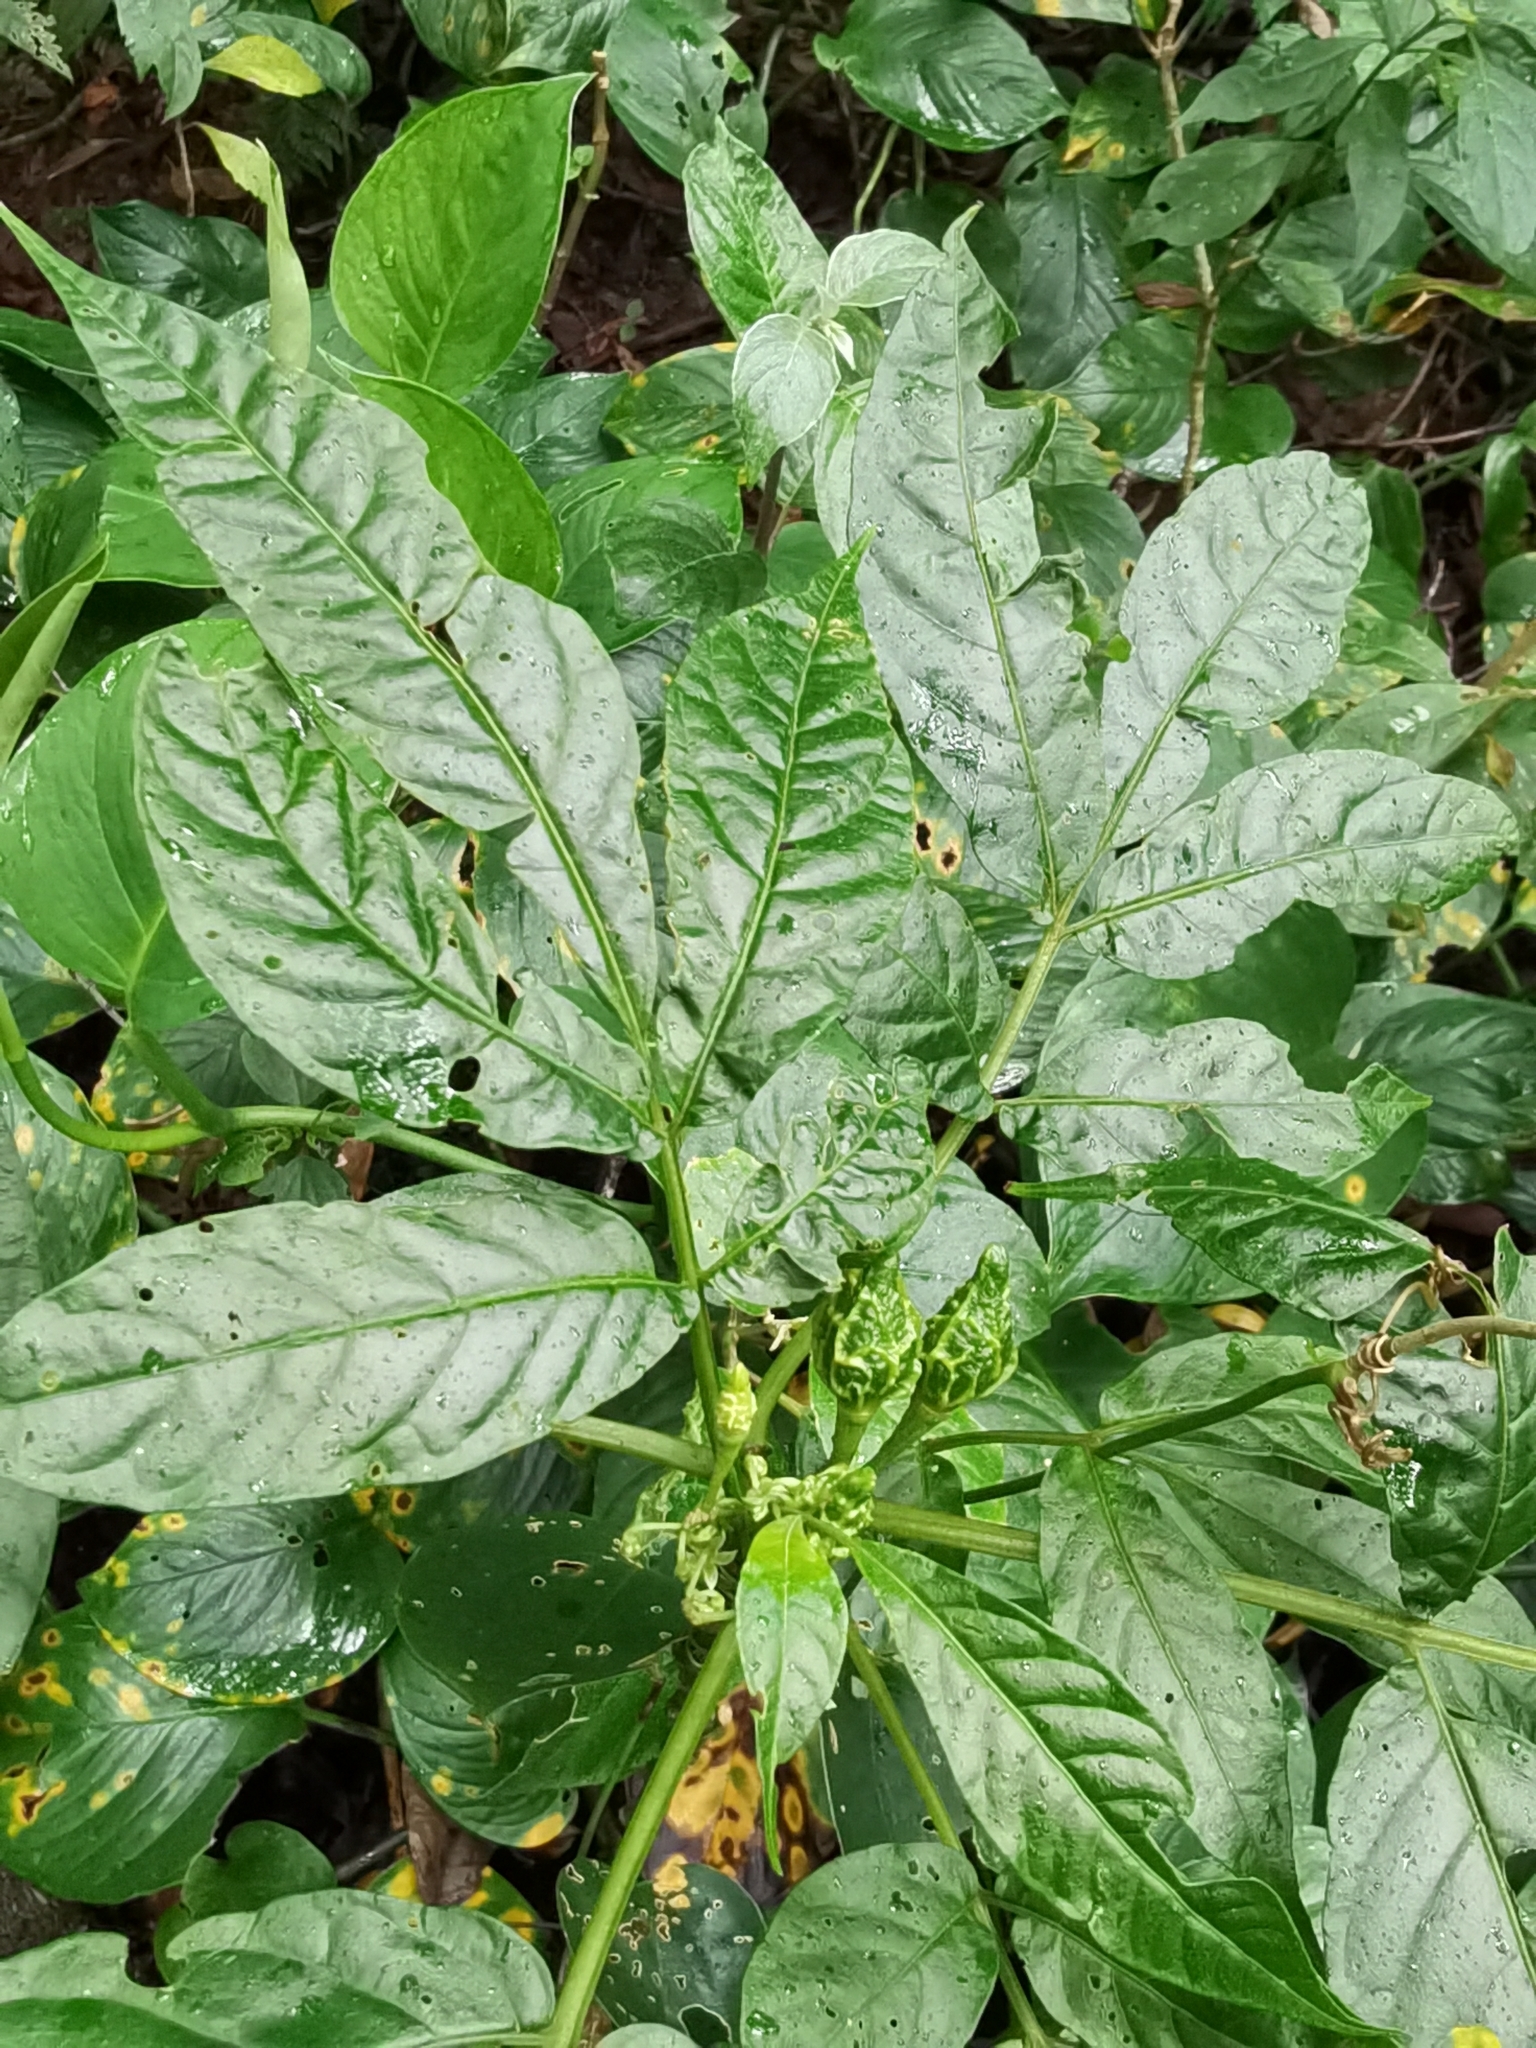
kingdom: Plantae
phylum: Tracheophyta
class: Magnoliopsida
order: Solanales
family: Solanaceae
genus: Solanum
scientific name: Solanum trizygum
